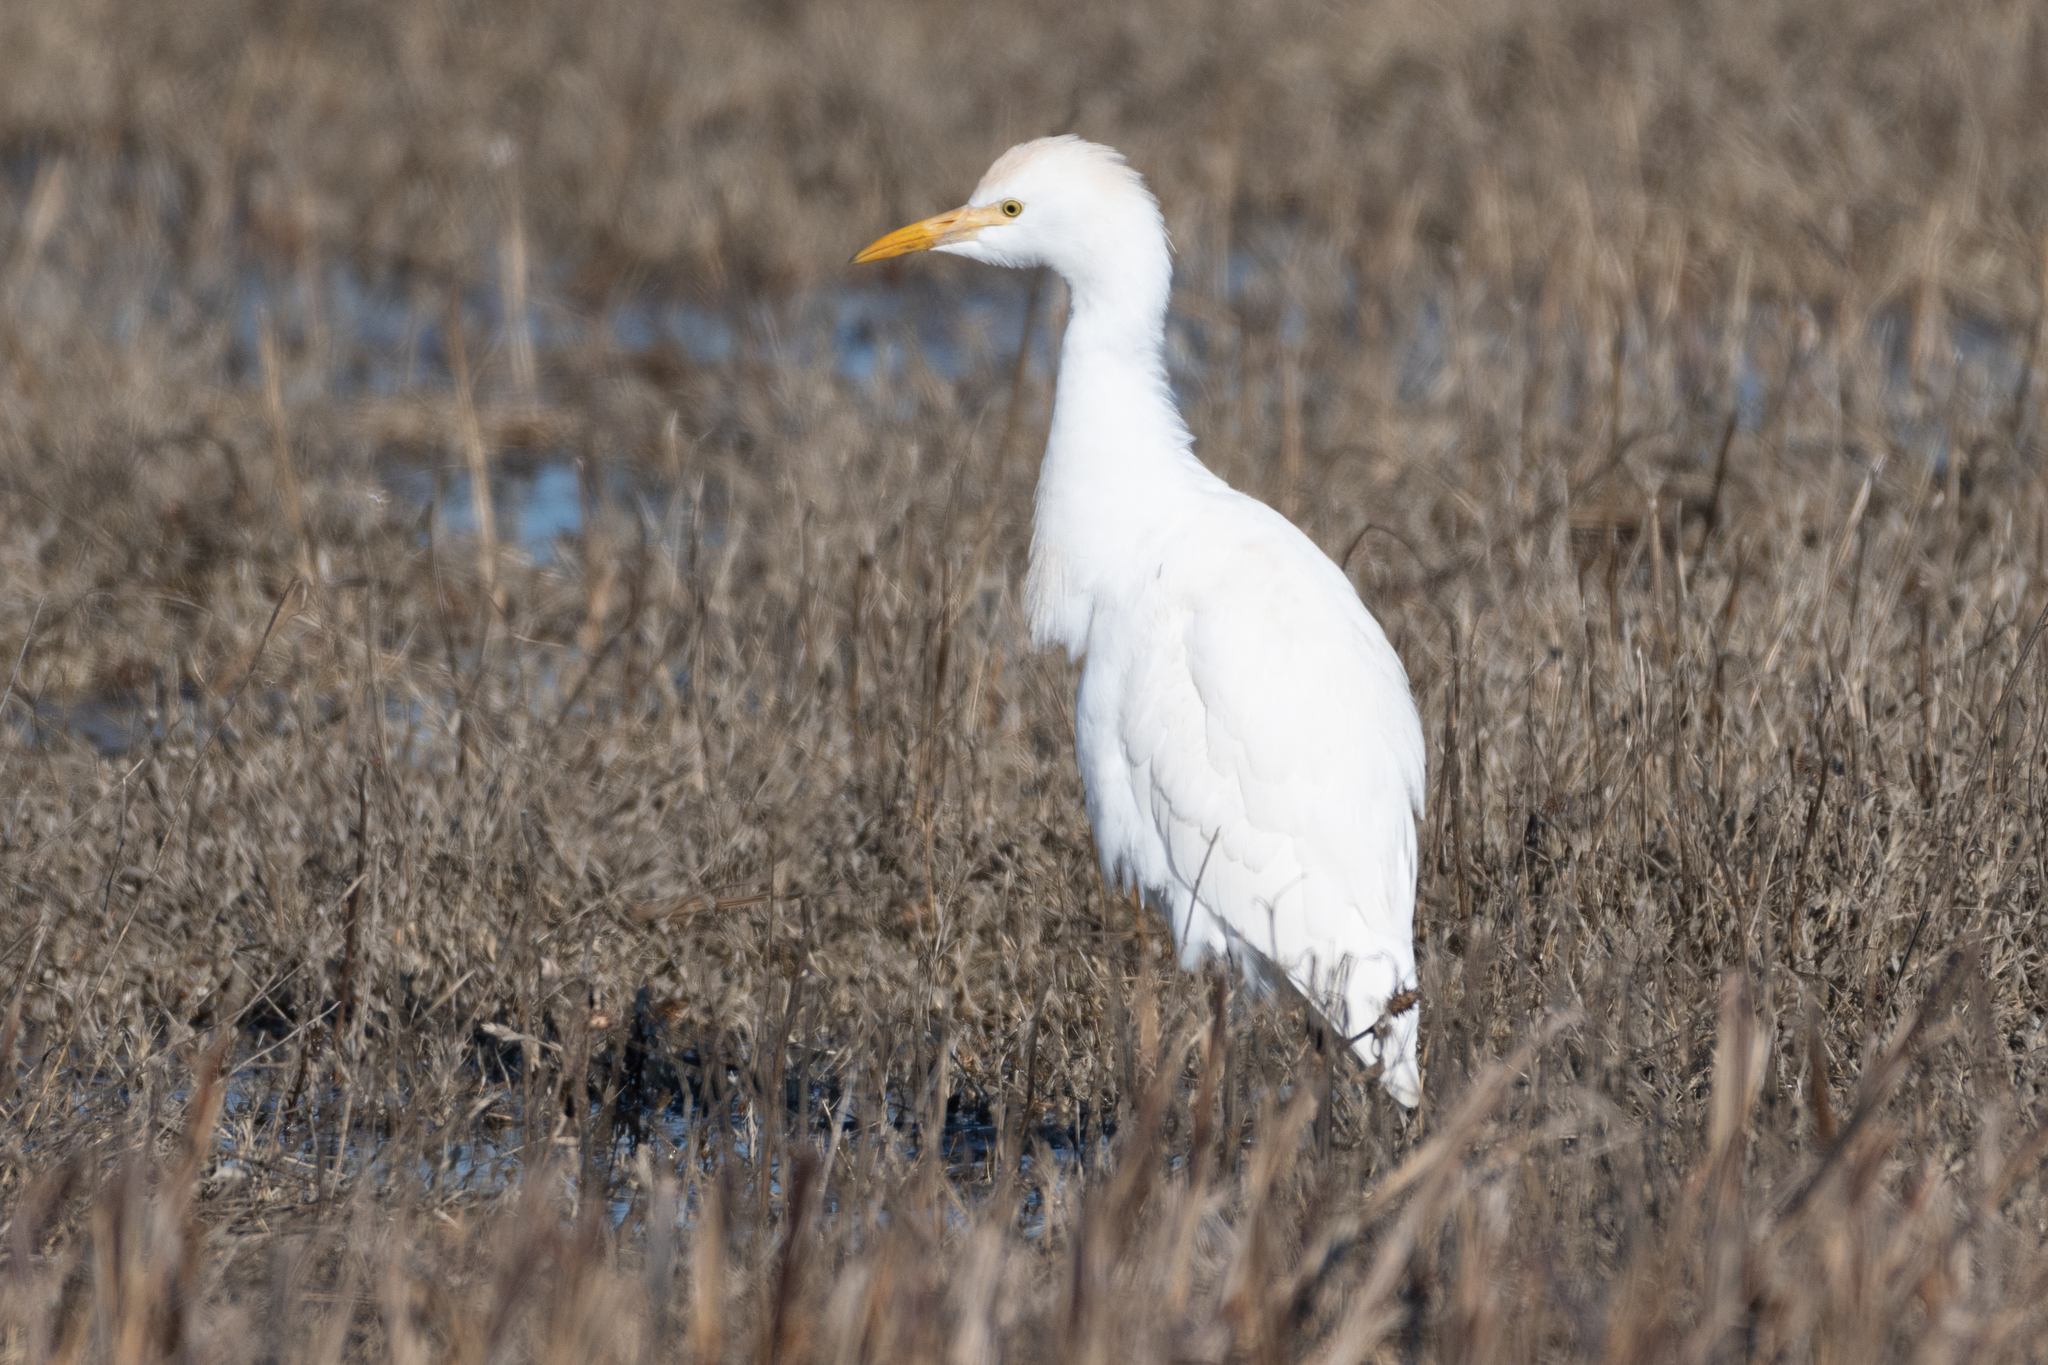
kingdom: Animalia
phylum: Chordata
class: Aves
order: Pelecaniformes
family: Ardeidae
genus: Bubulcus
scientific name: Bubulcus ibis
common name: Cattle egret
